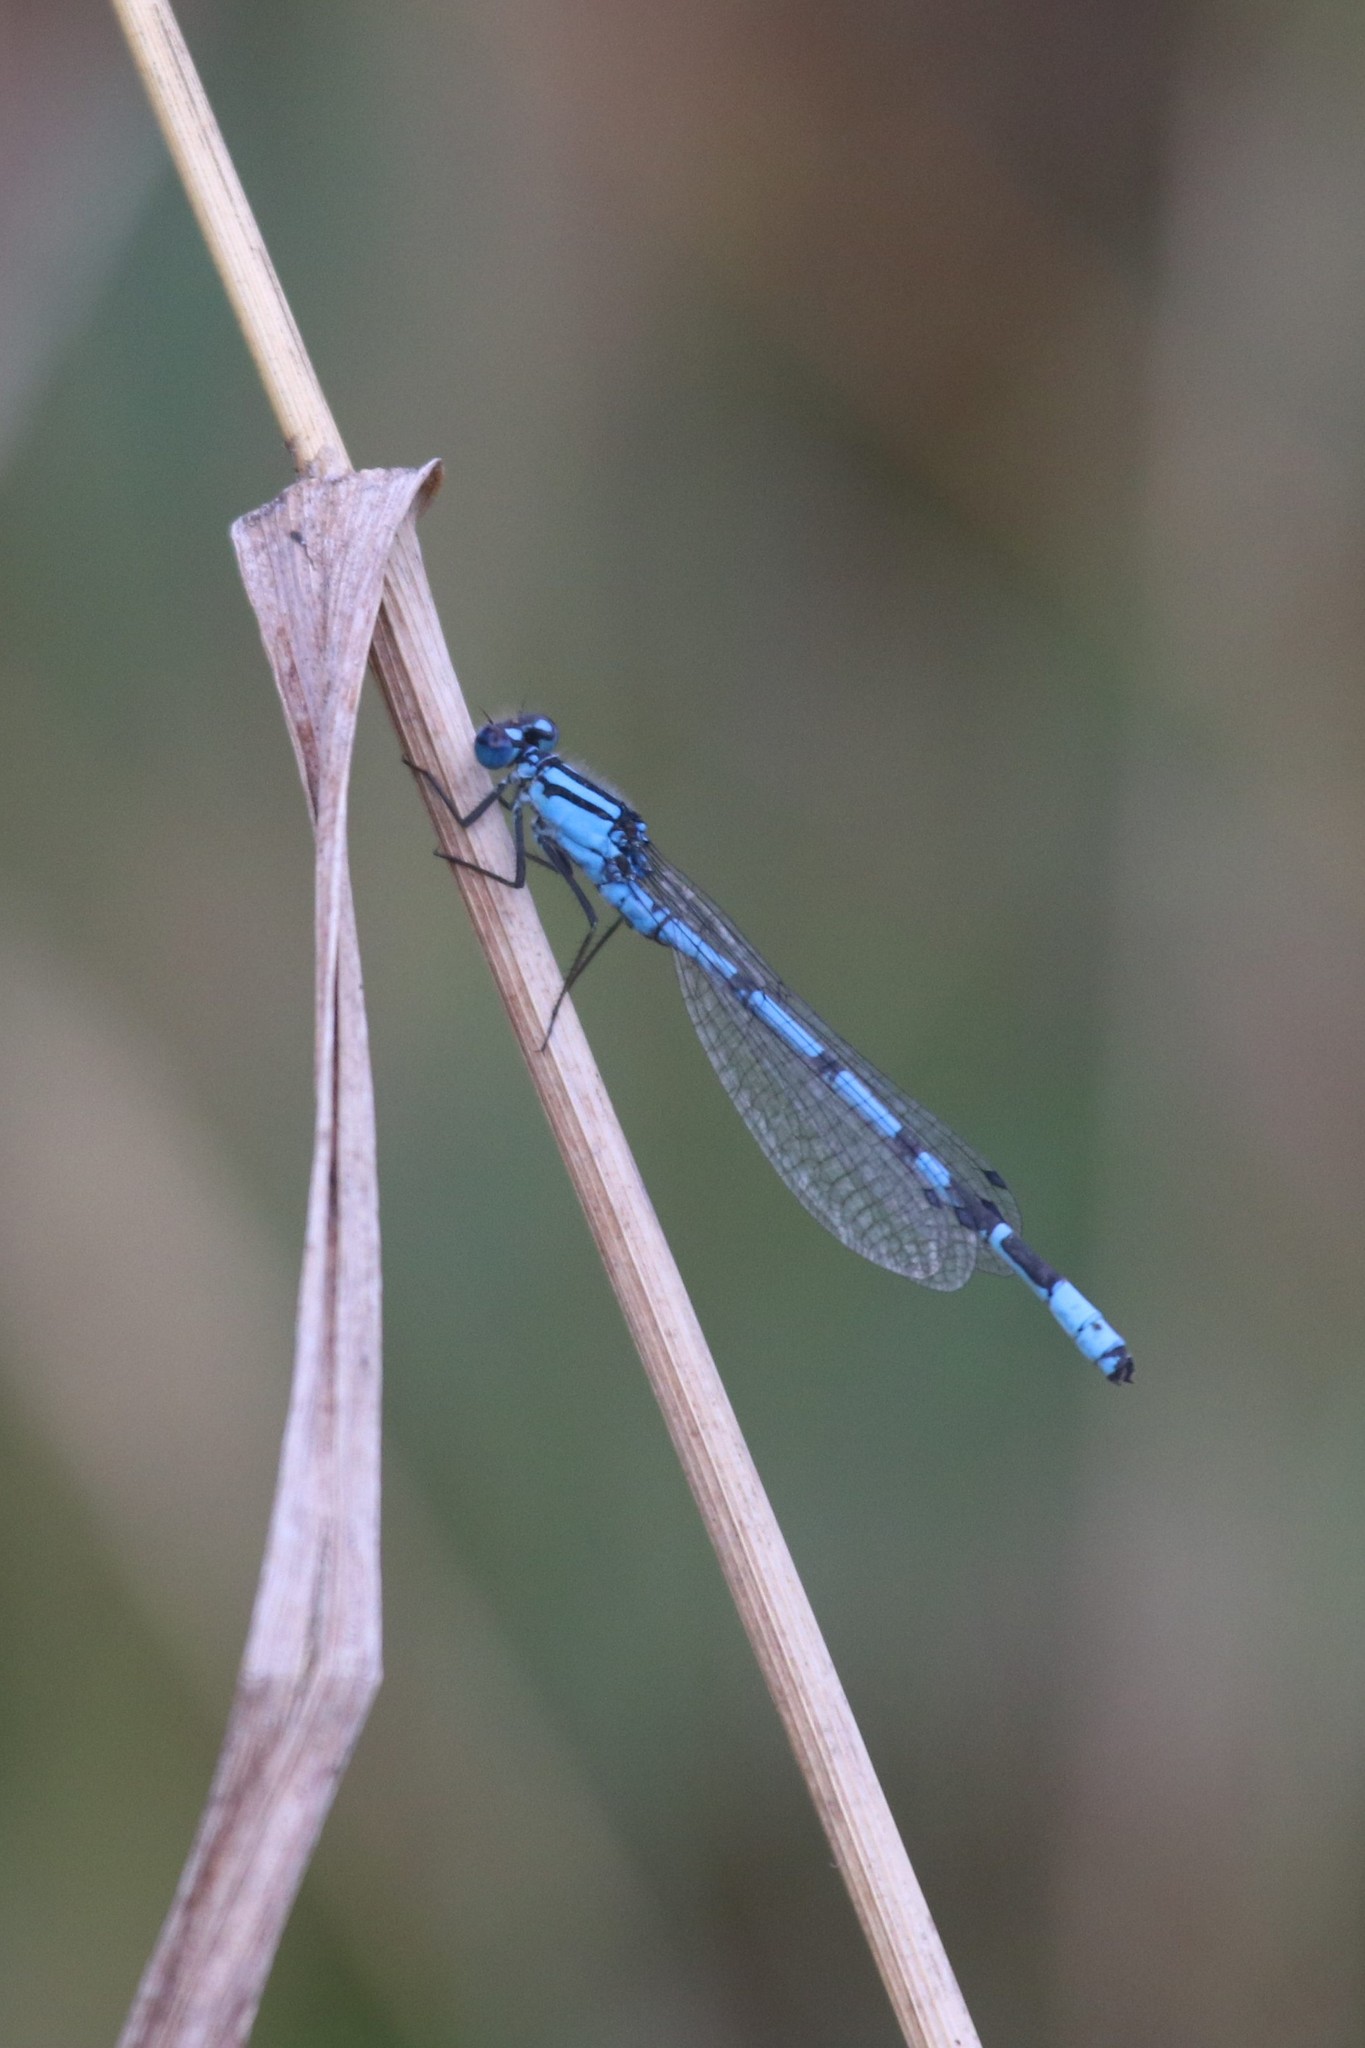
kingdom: Animalia
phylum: Arthropoda
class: Insecta
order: Odonata
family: Coenagrionidae
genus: Enallagma
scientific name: Enallagma cyathigerum
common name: Common blue damselfly
